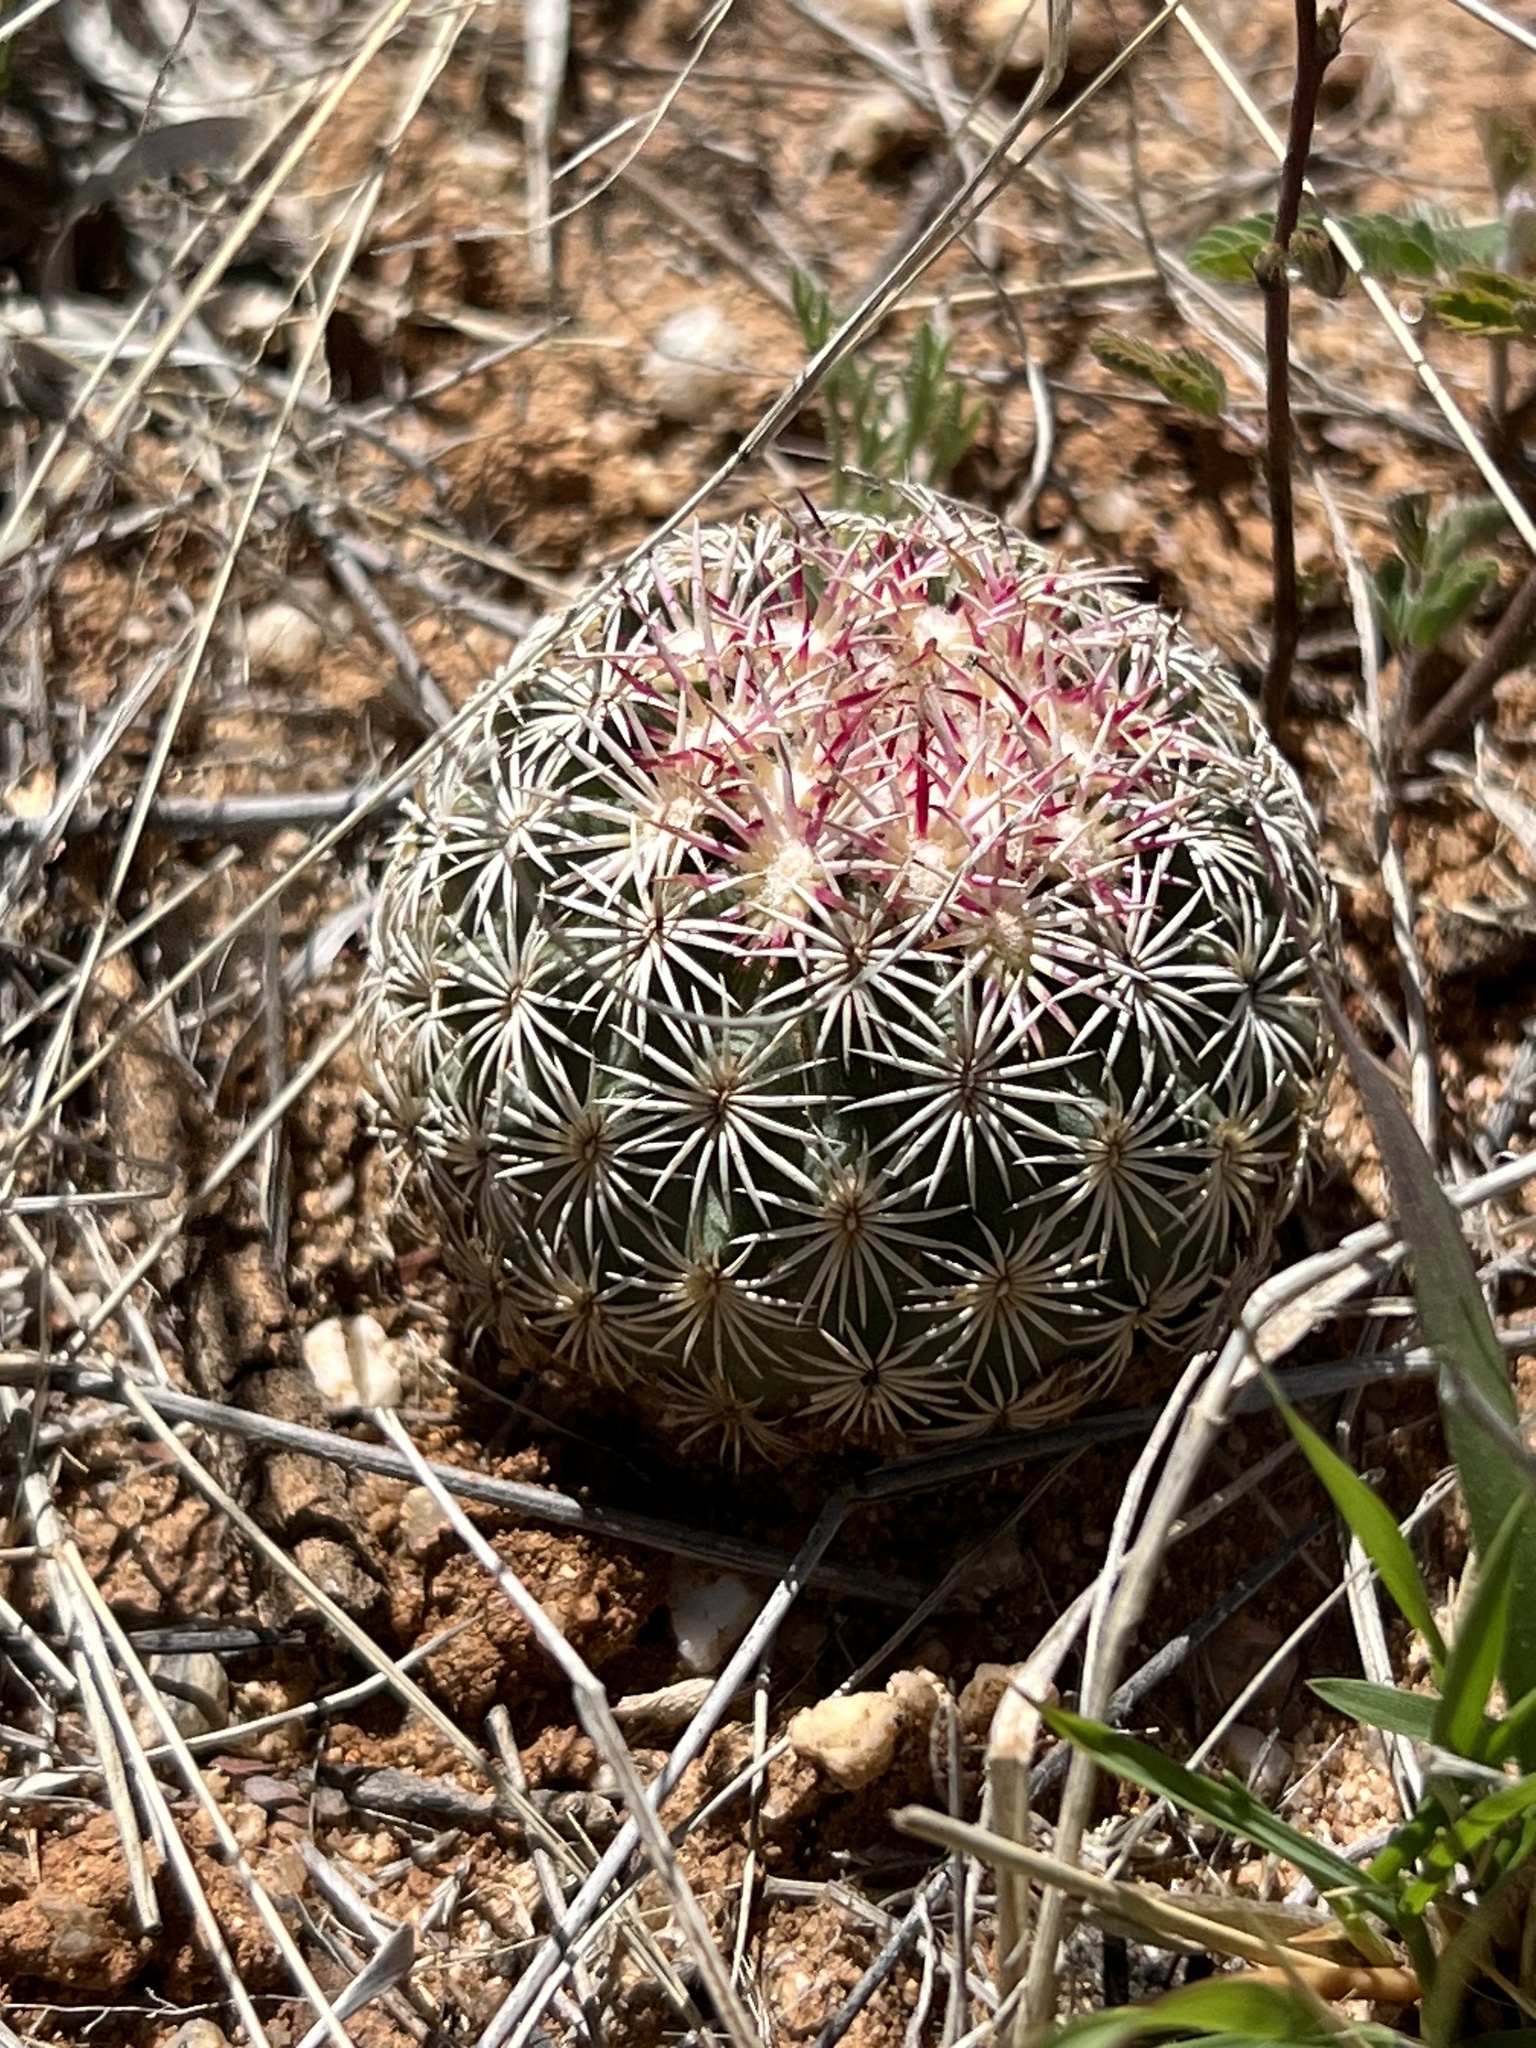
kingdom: Plantae
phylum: Tracheophyta
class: Magnoliopsida
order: Caryophyllales
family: Cactaceae
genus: Sclerocactus
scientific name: Sclerocactus johnsonii
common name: Eight-spine fishhook cactus
